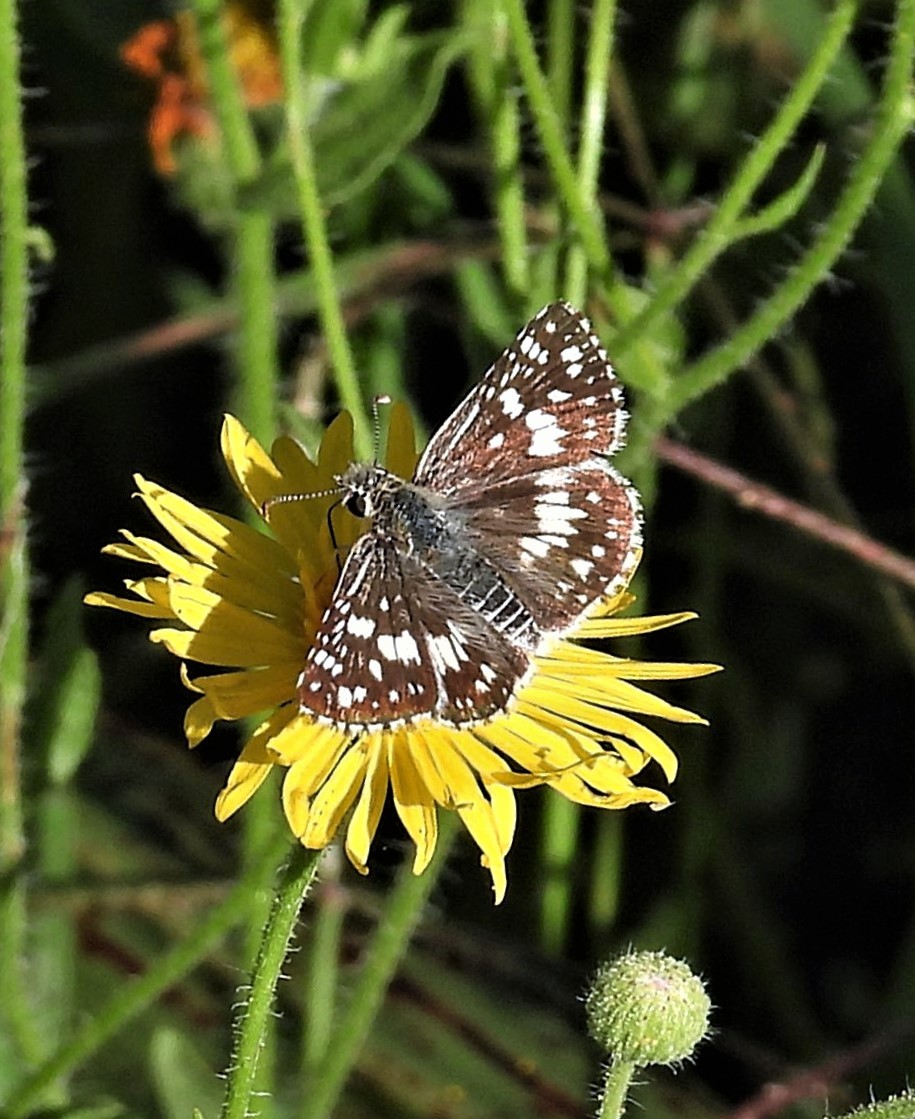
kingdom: Animalia
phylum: Arthropoda
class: Insecta
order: Lepidoptera
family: Hesperiidae
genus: Burnsius
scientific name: Burnsius orcynoides
